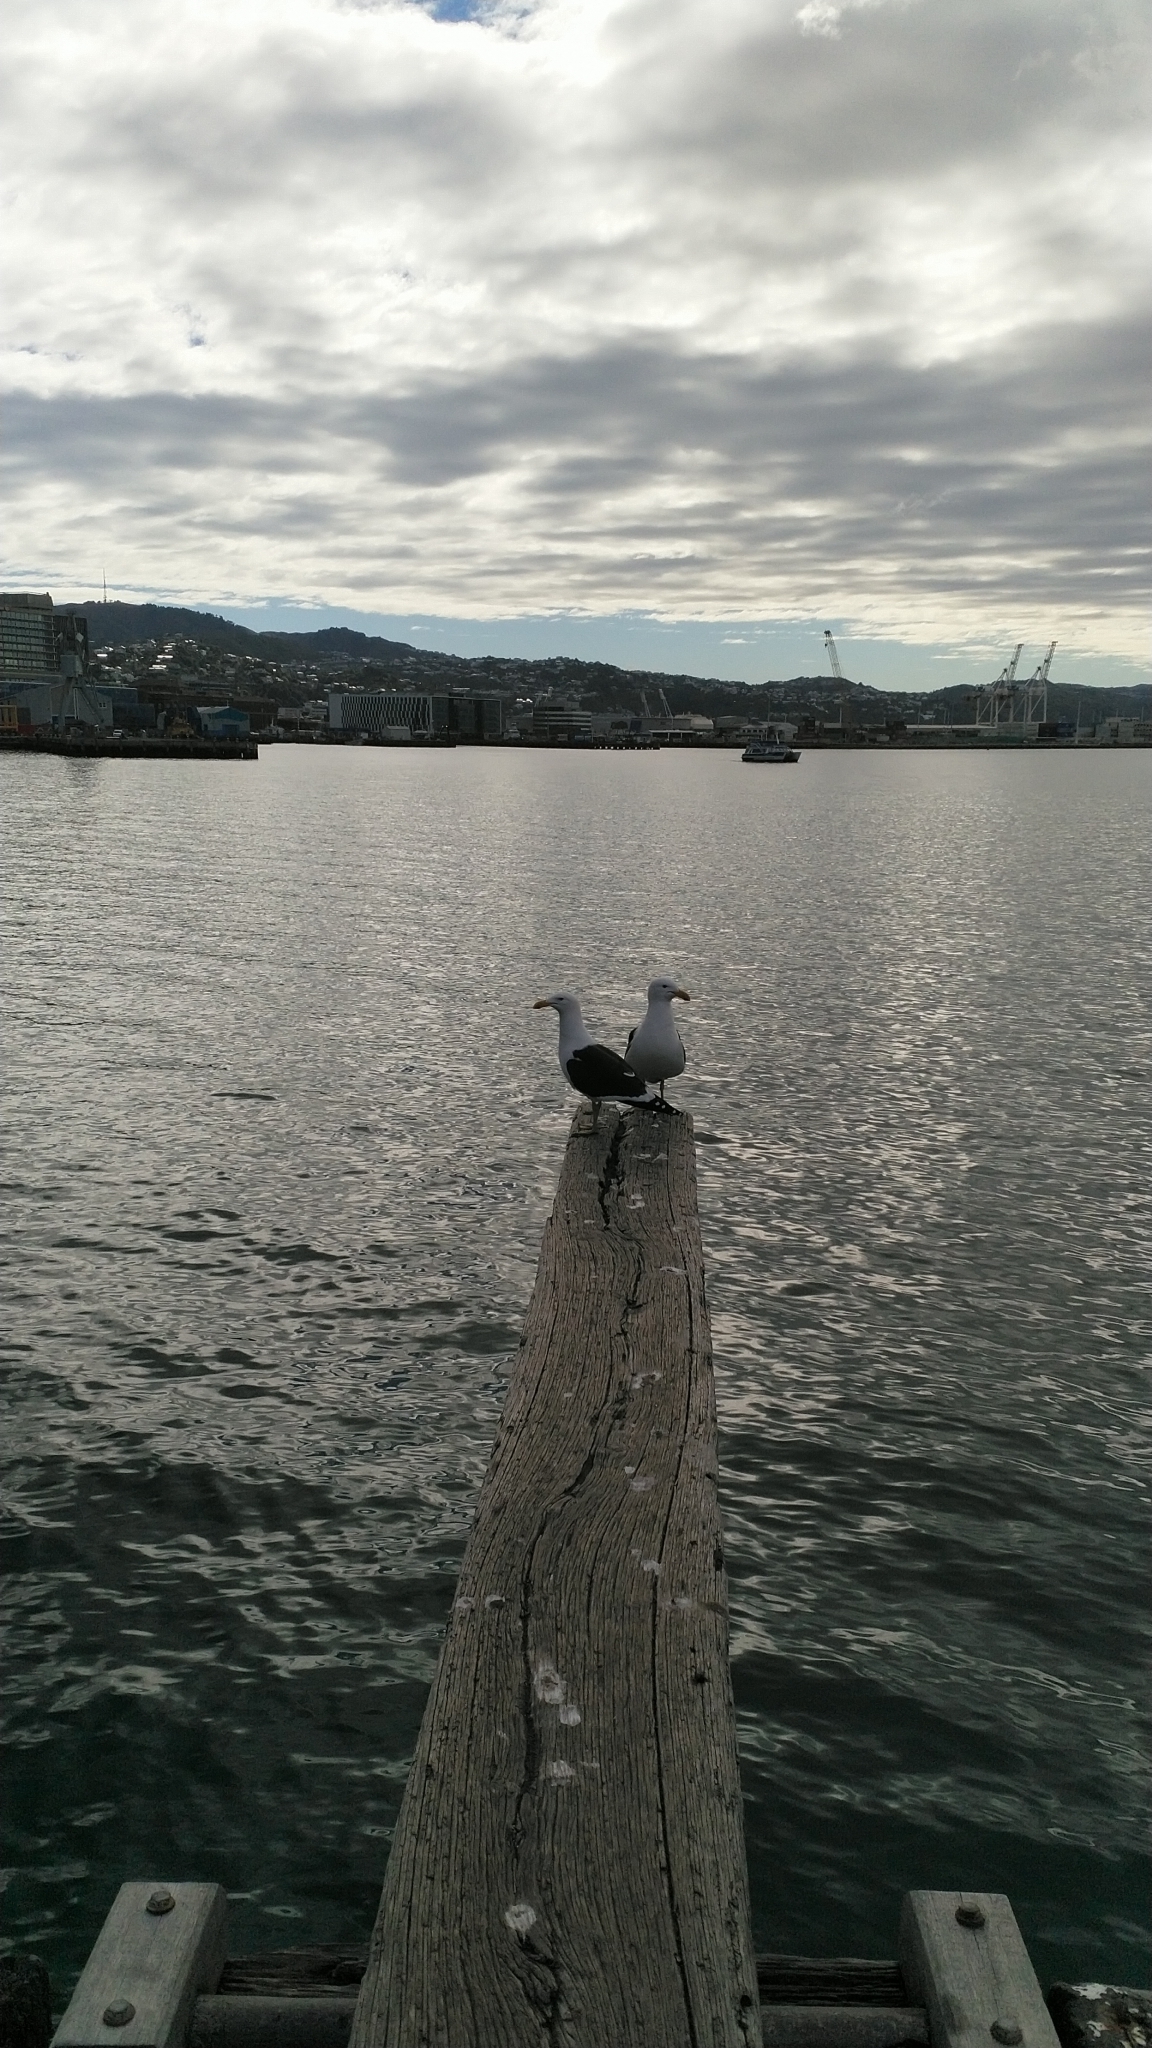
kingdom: Animalia
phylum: Chordata
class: Aves
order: Charadriiformes
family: Laridae
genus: Larus
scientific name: Larus dominicanus
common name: Kelp gull
